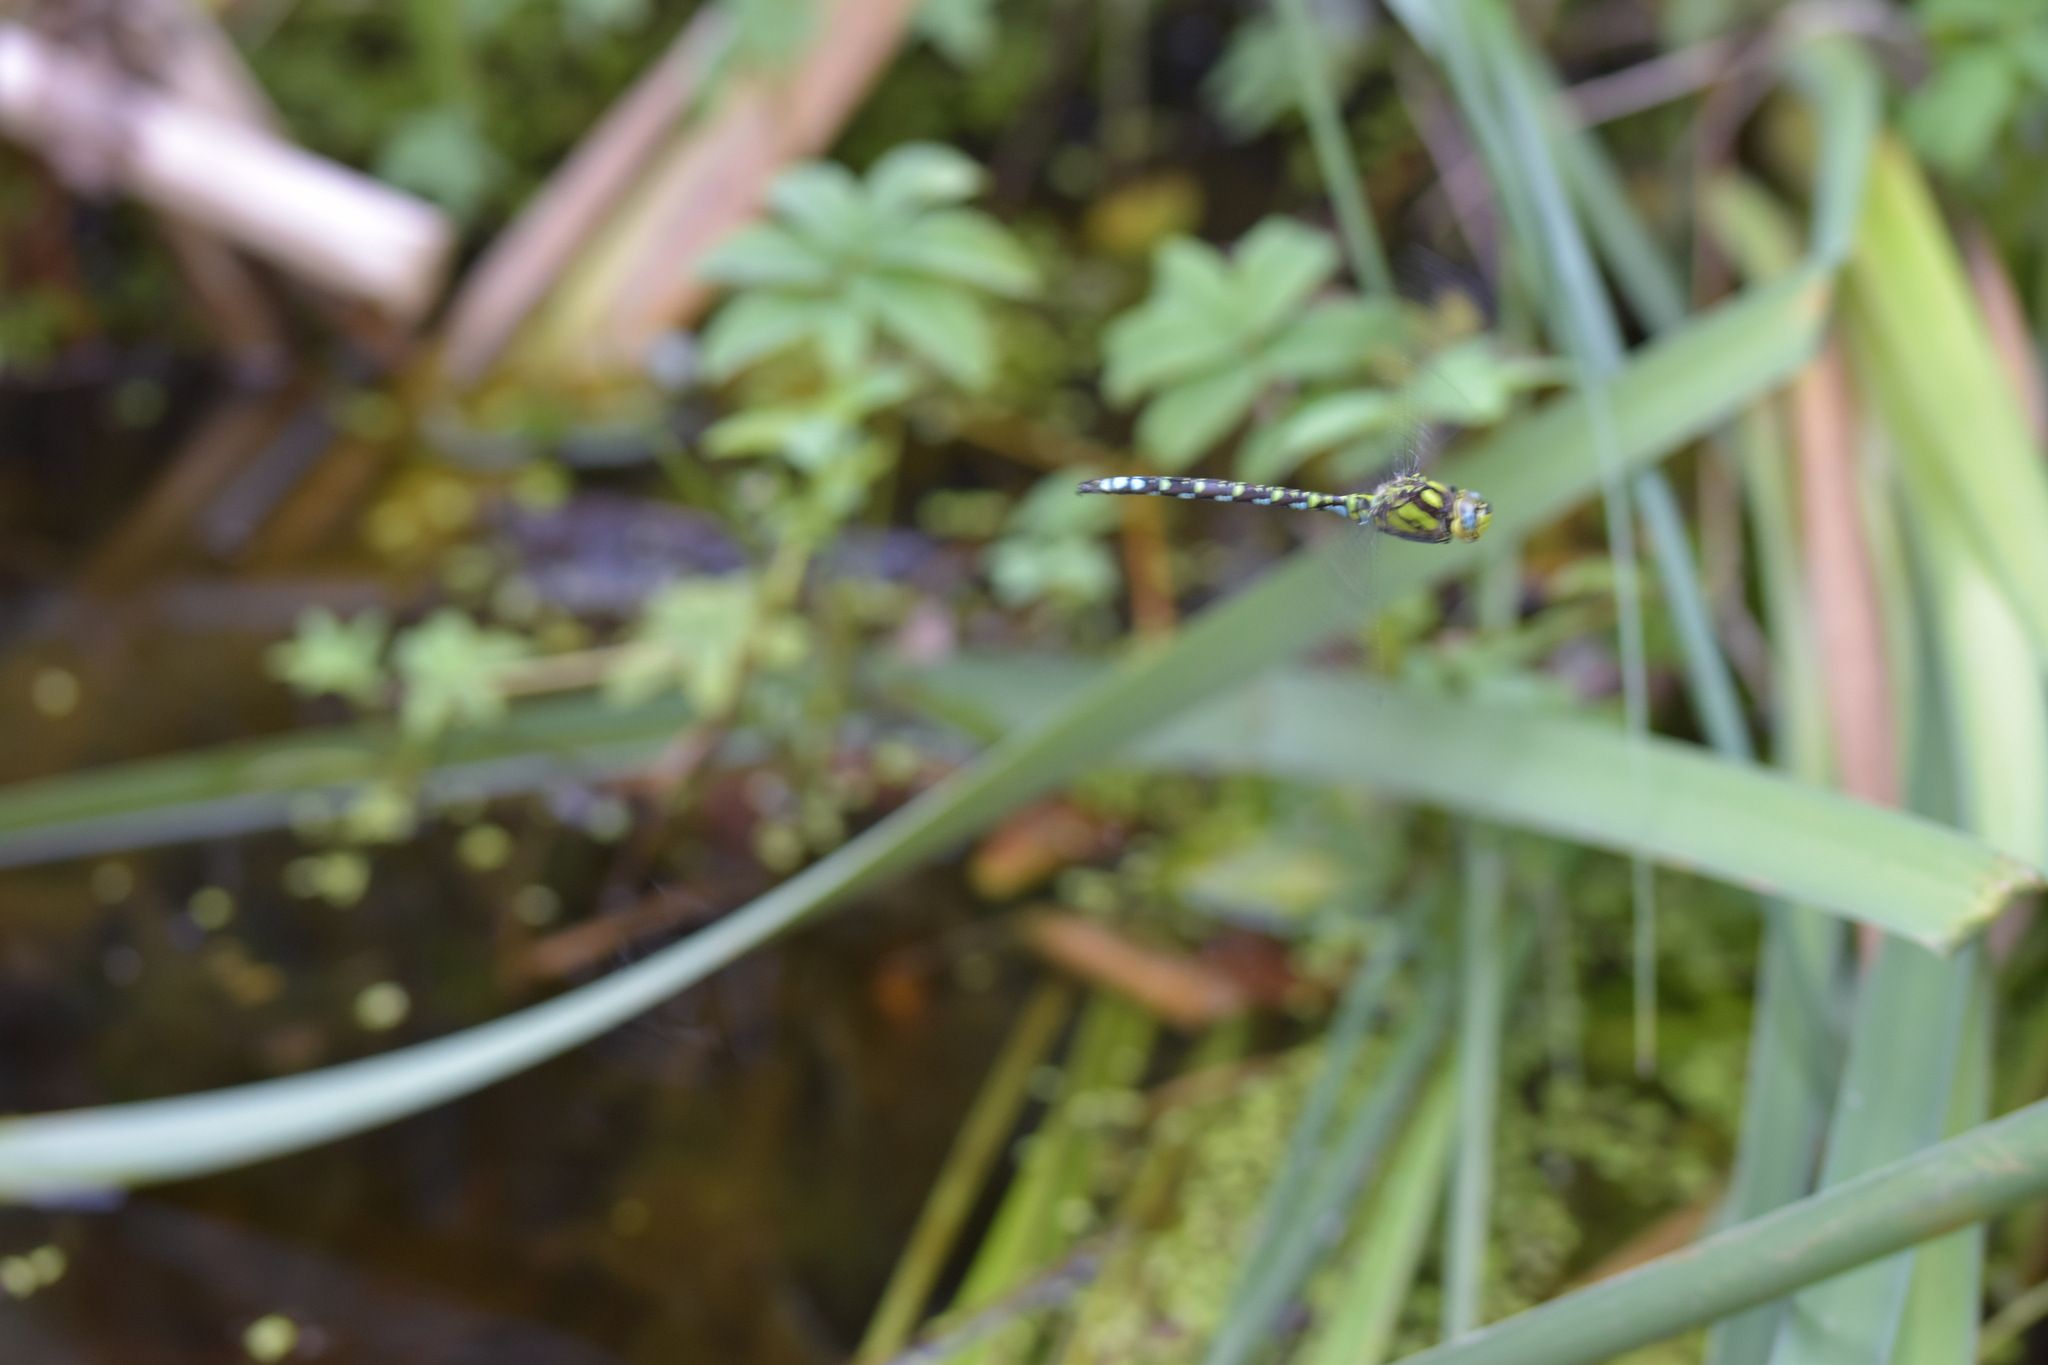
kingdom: Animalia
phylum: Arthropoda
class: Insecta
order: Odonata
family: Aeshnidae
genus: Aeshna
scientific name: Aeshna cyanea
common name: Southern hawker
